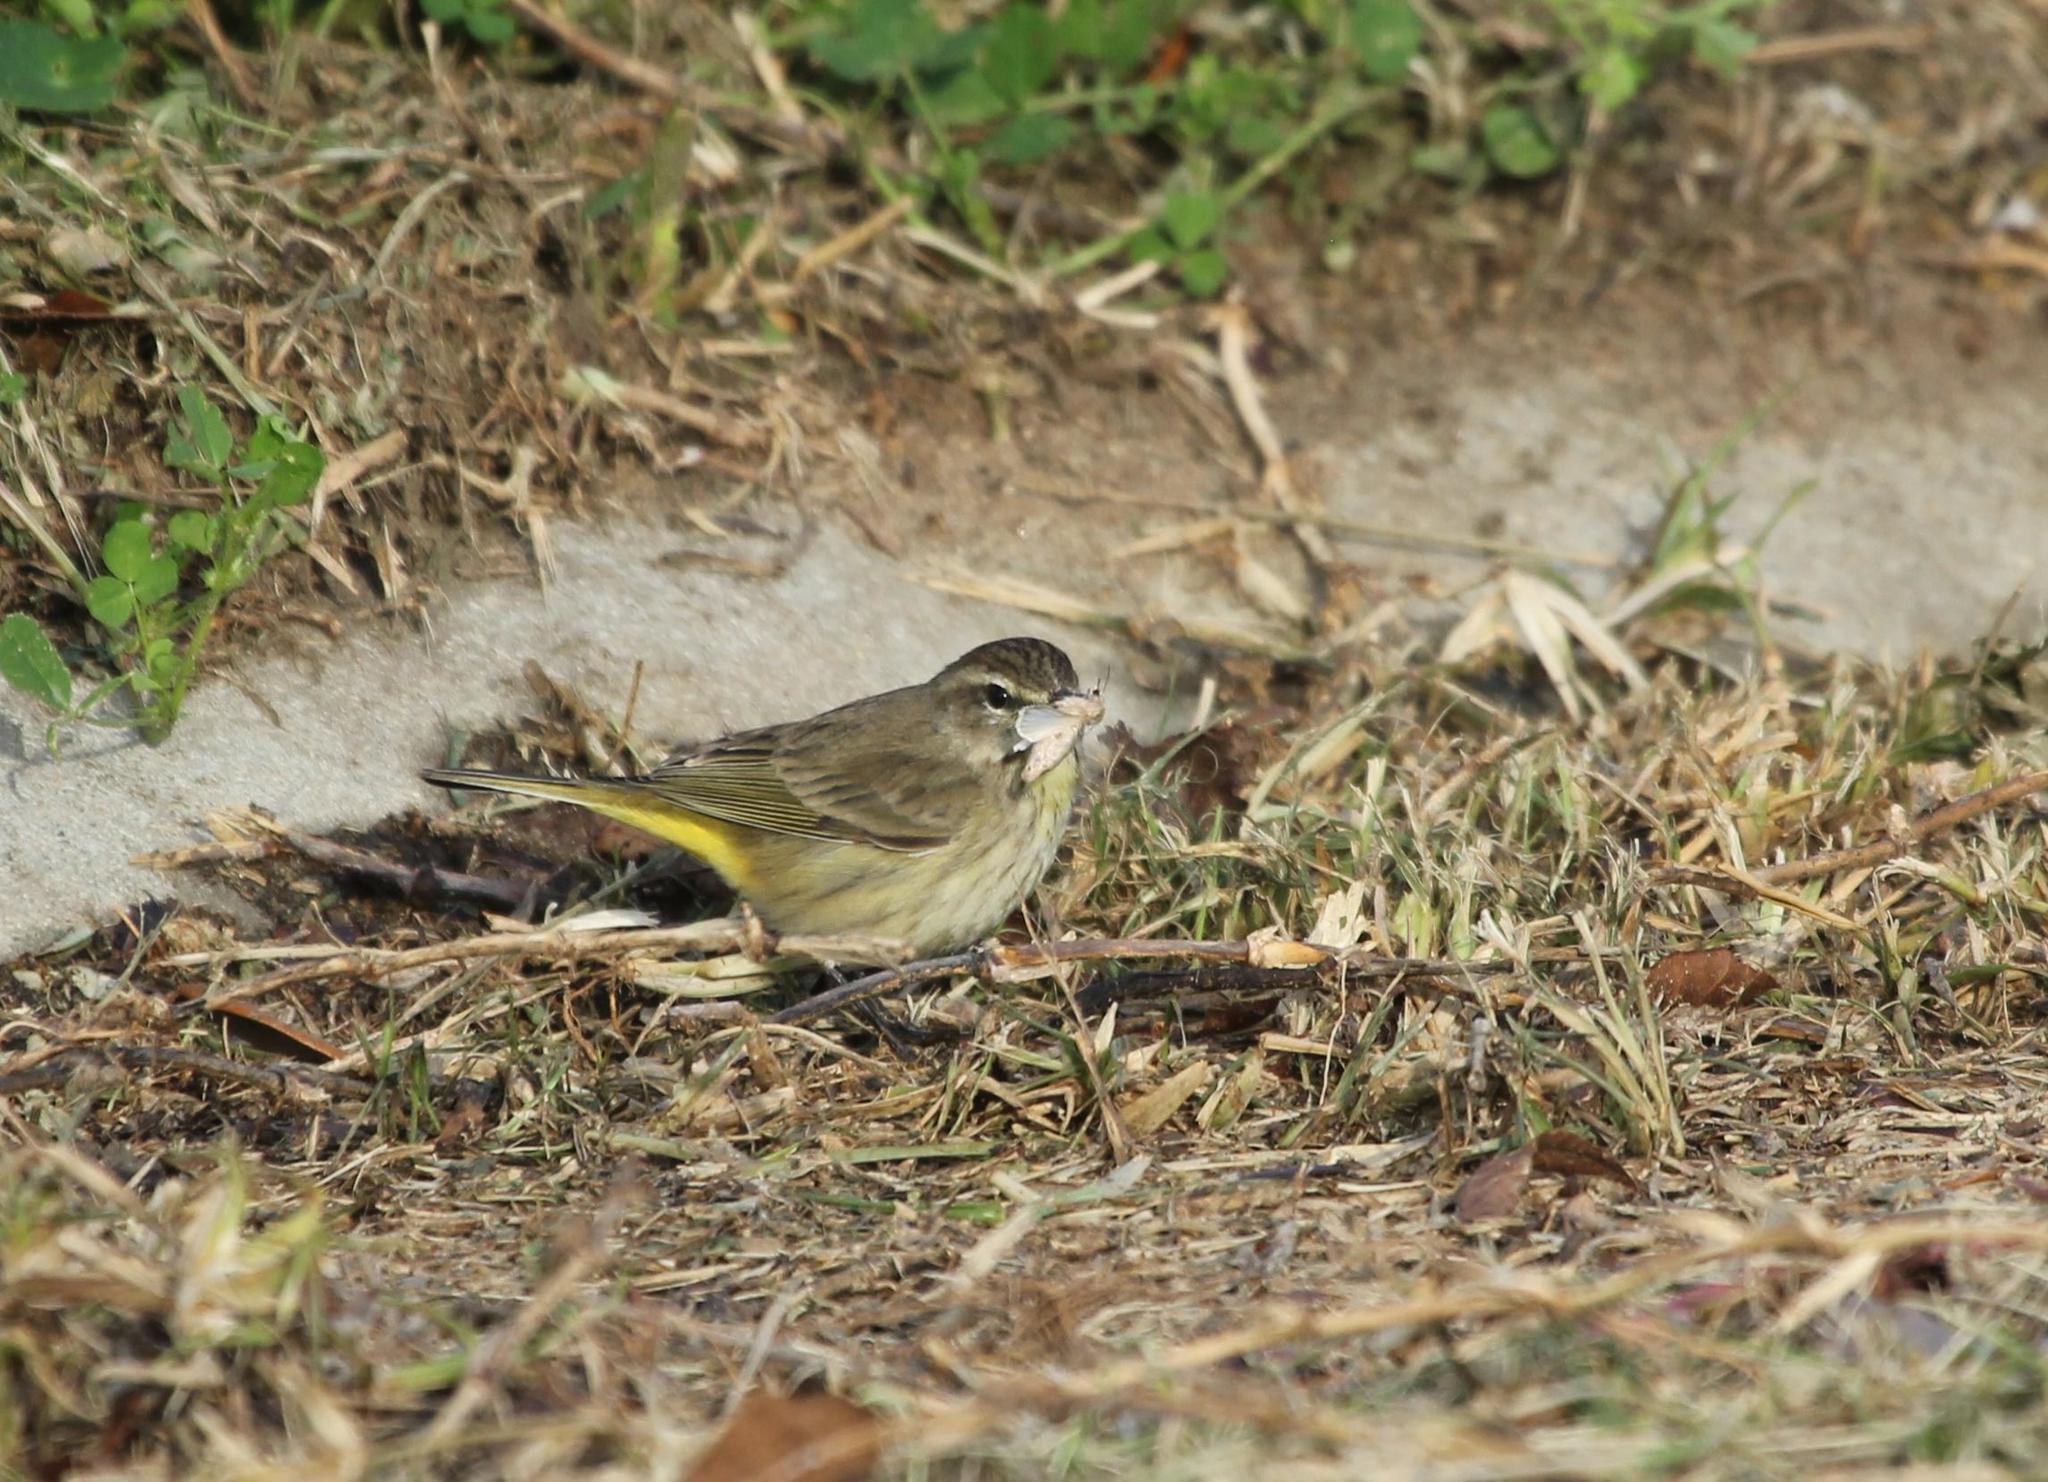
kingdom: Animalia
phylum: Chordata
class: Aves
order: Passeriformes
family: Parulidae
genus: Setophaga
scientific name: Setophaga palmarum
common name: Palm warbler
